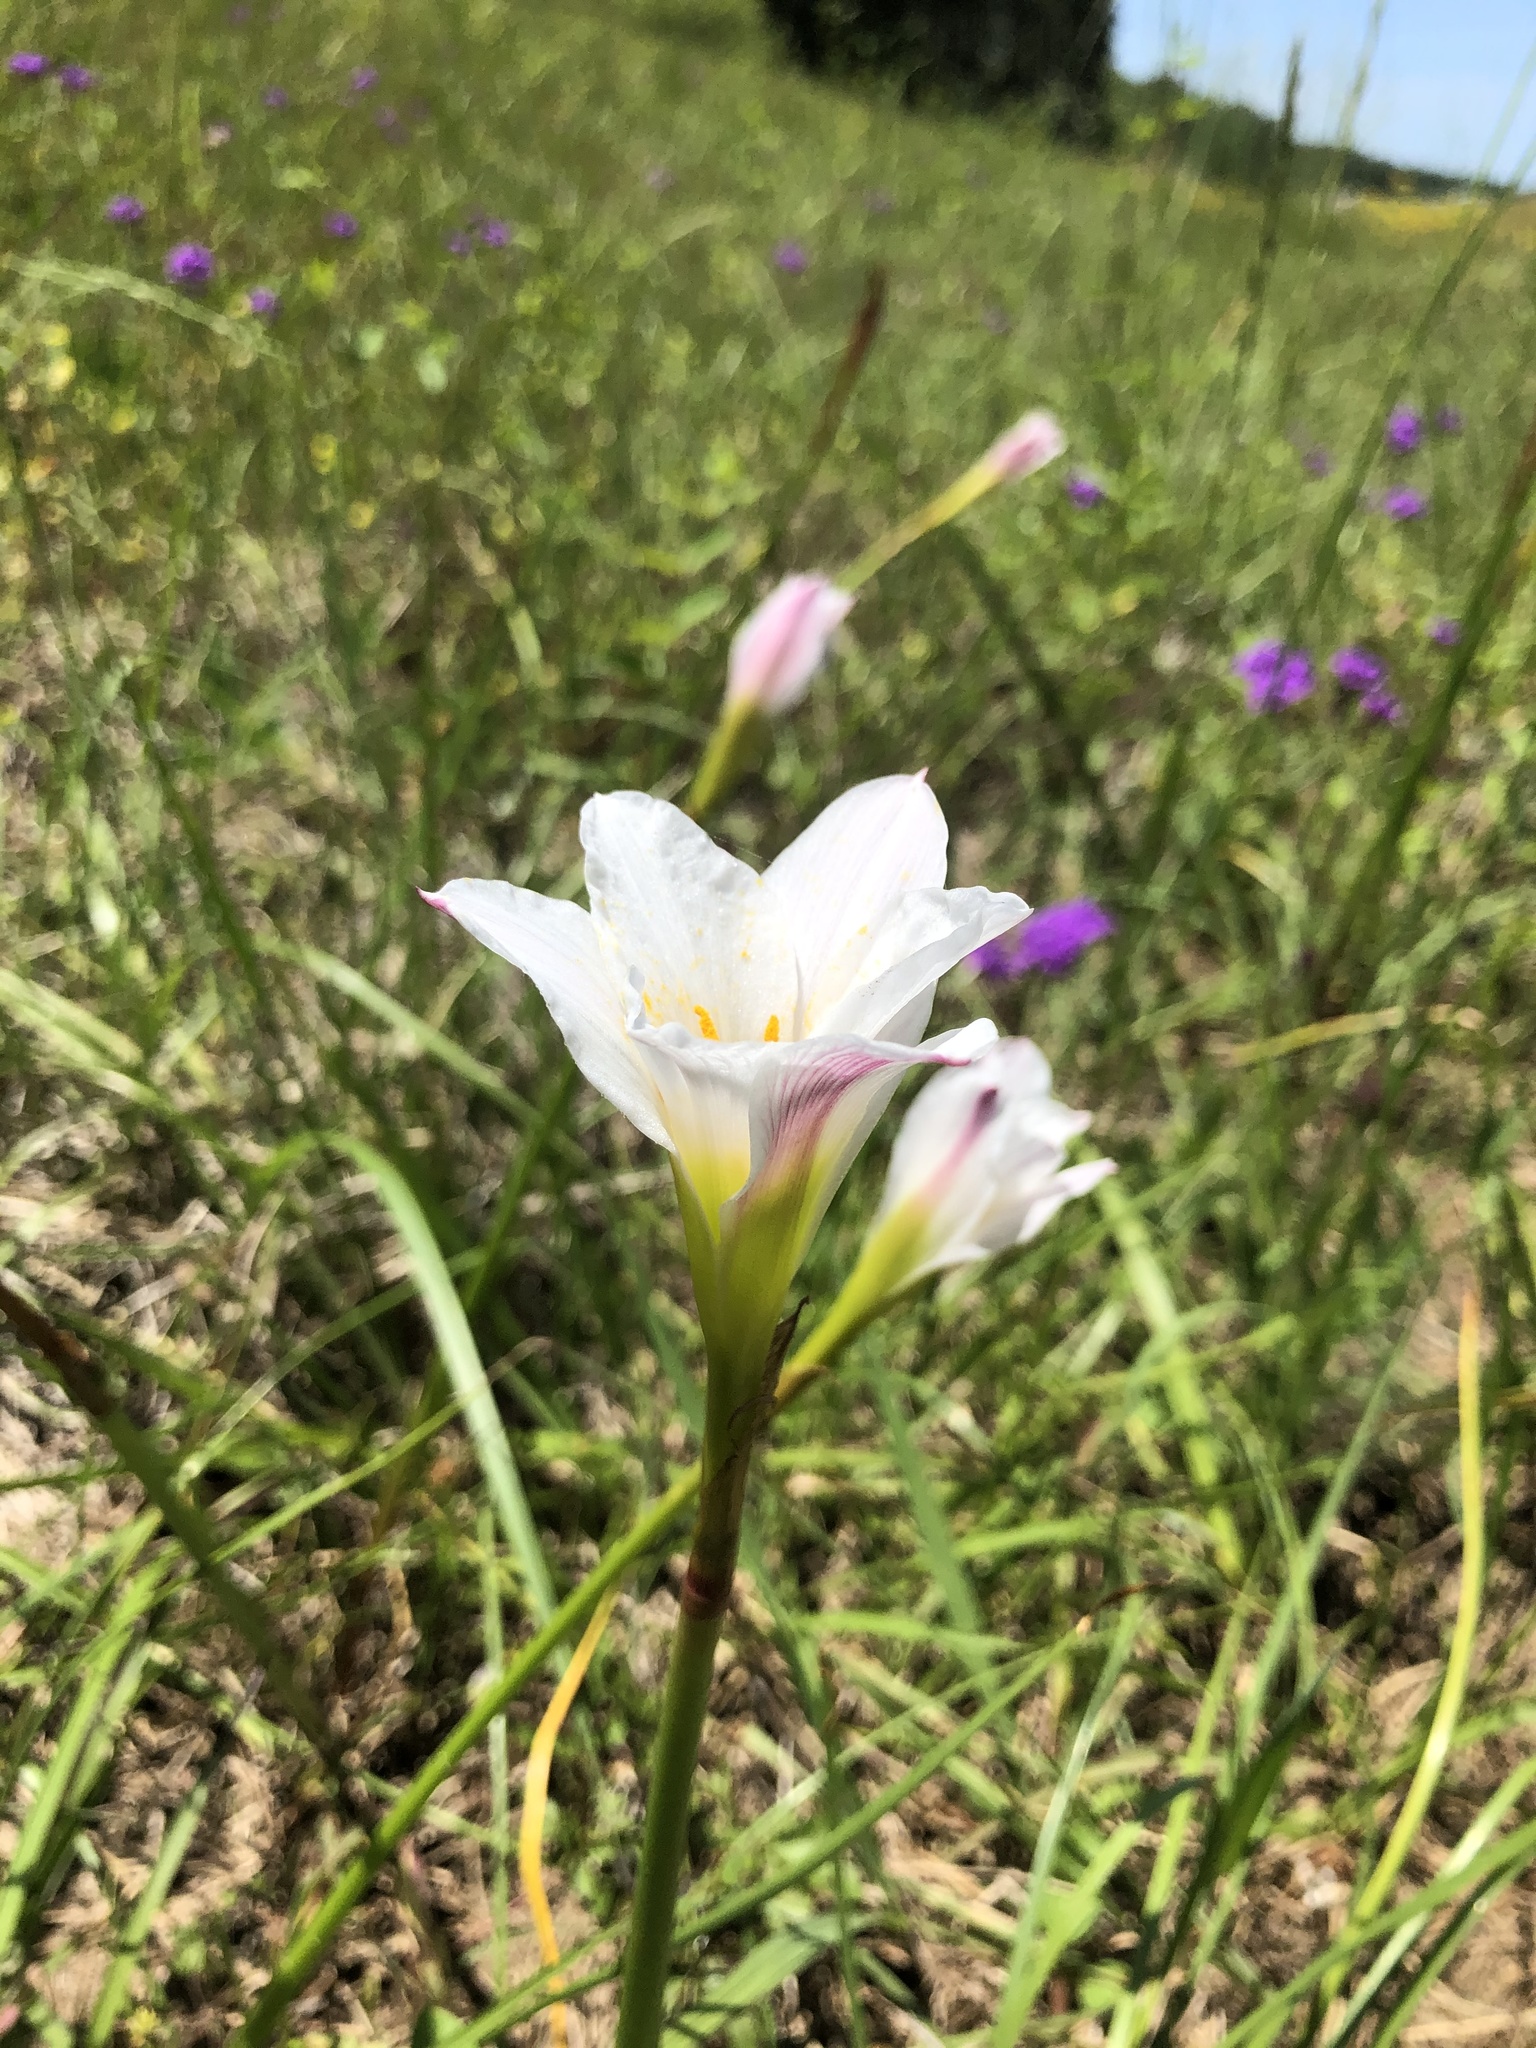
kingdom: Plantae
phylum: Tracheophyta
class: Liliopsida
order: Asparagales
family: Amaryllidaceae
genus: Zephyranthes
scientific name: Zephyranthes simpsonii
